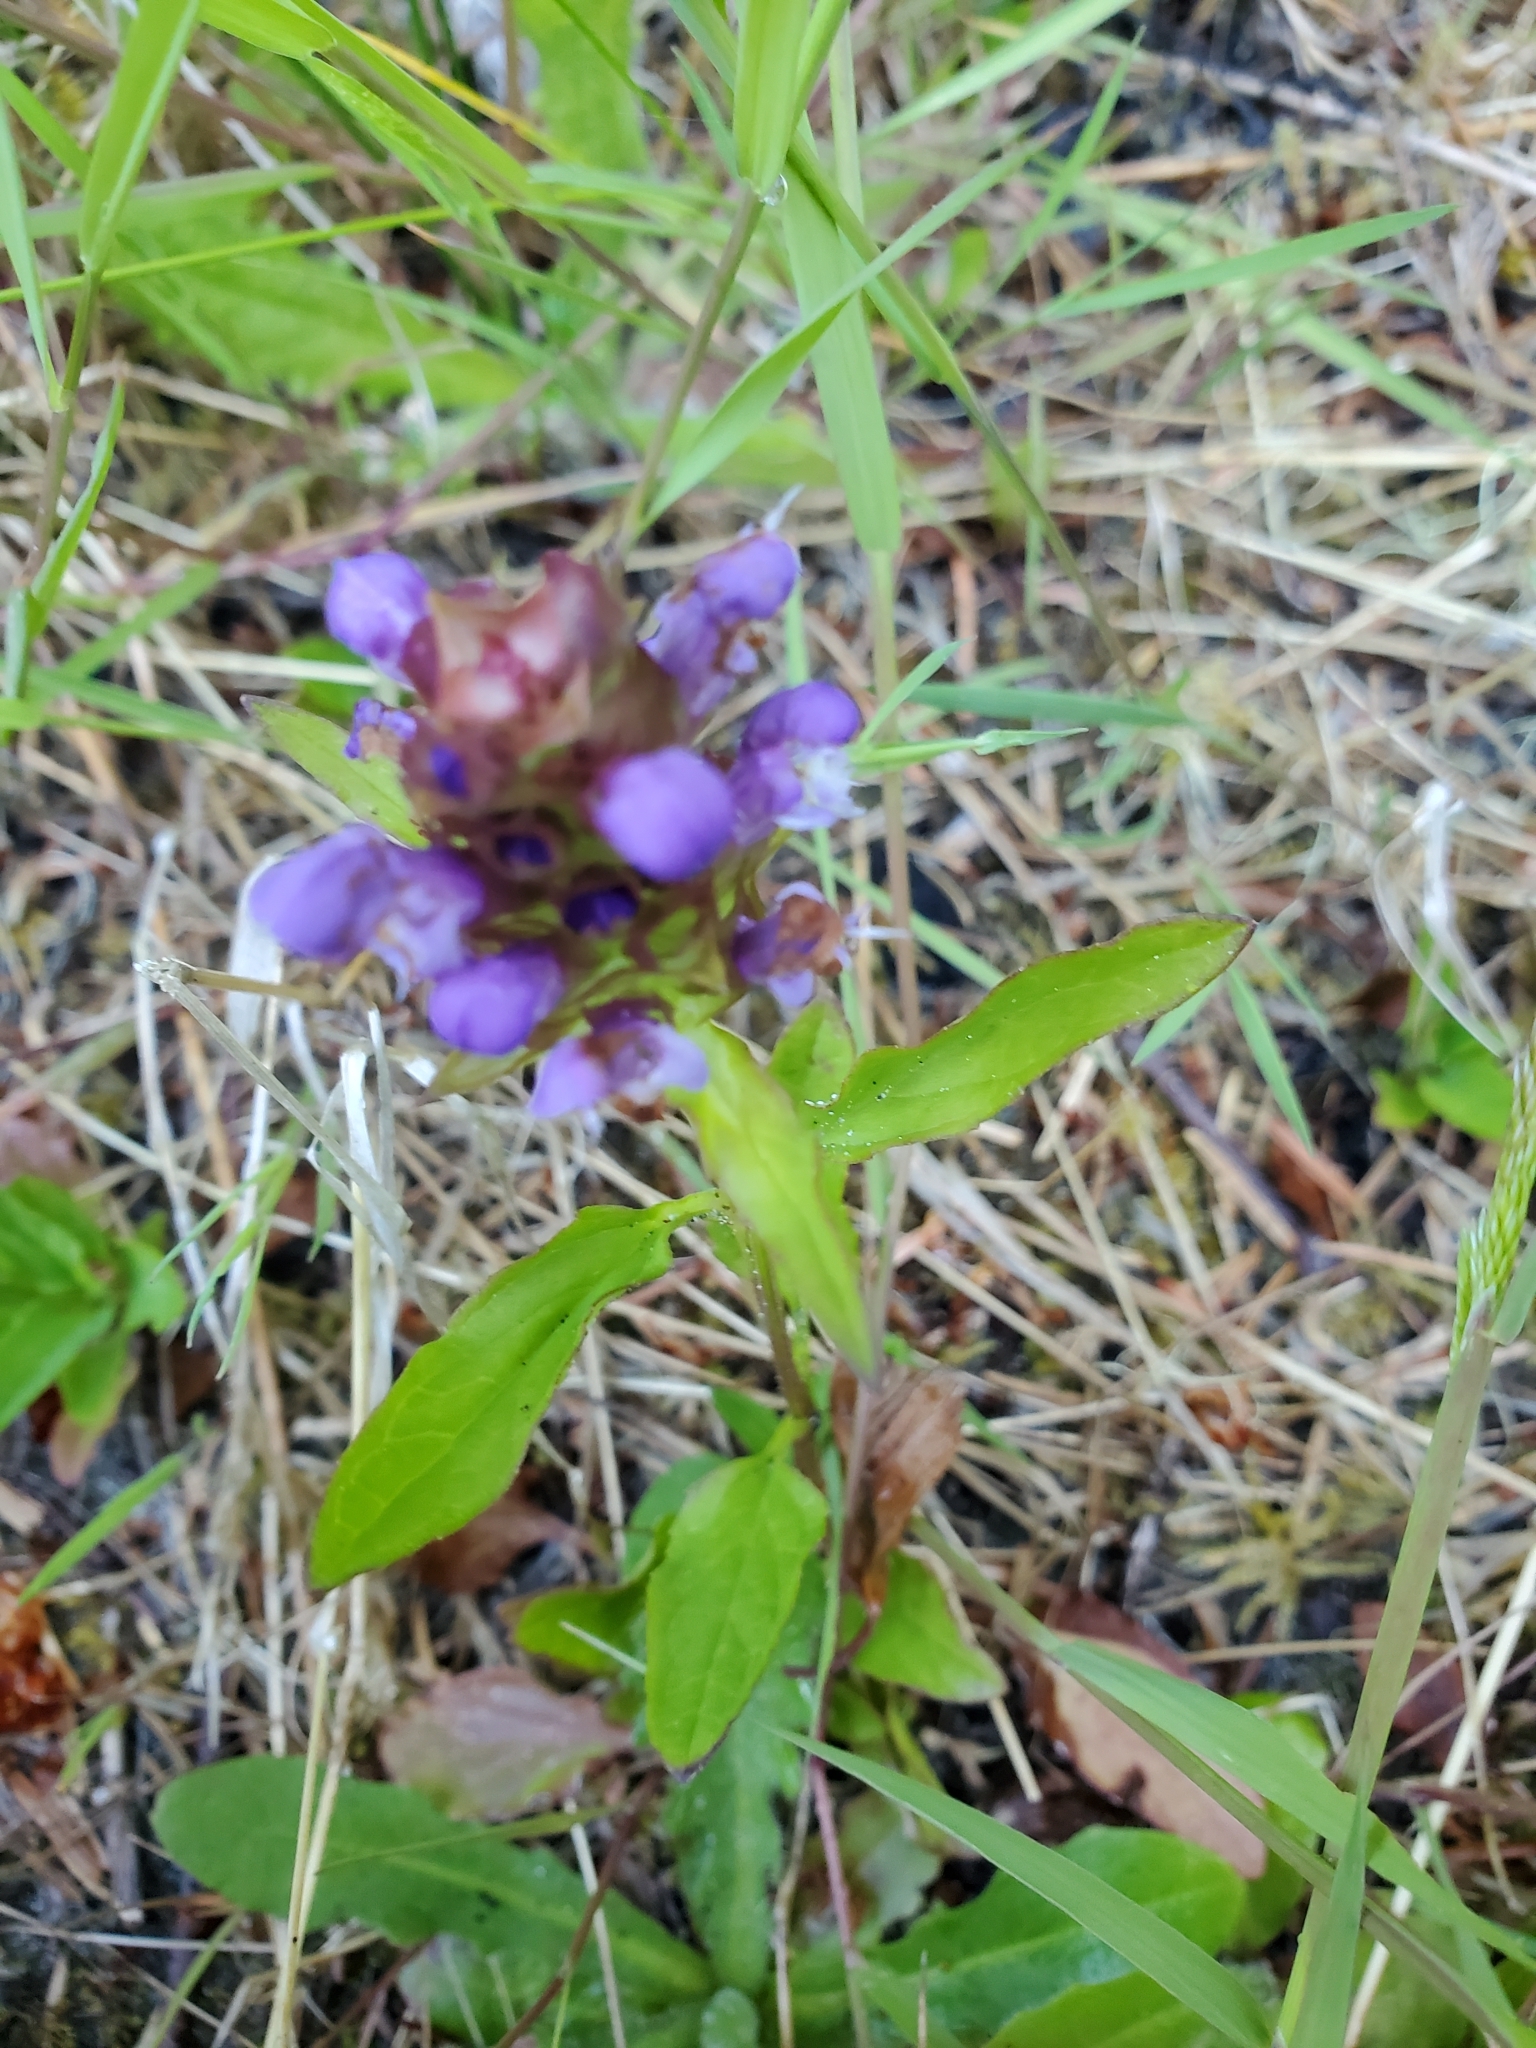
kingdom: Plantae
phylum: Tracheophyta
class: Magnoliopsida
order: Lamiales
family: Lamiaceae
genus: Prunella
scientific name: Prunella vulgaris
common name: Heal-all
